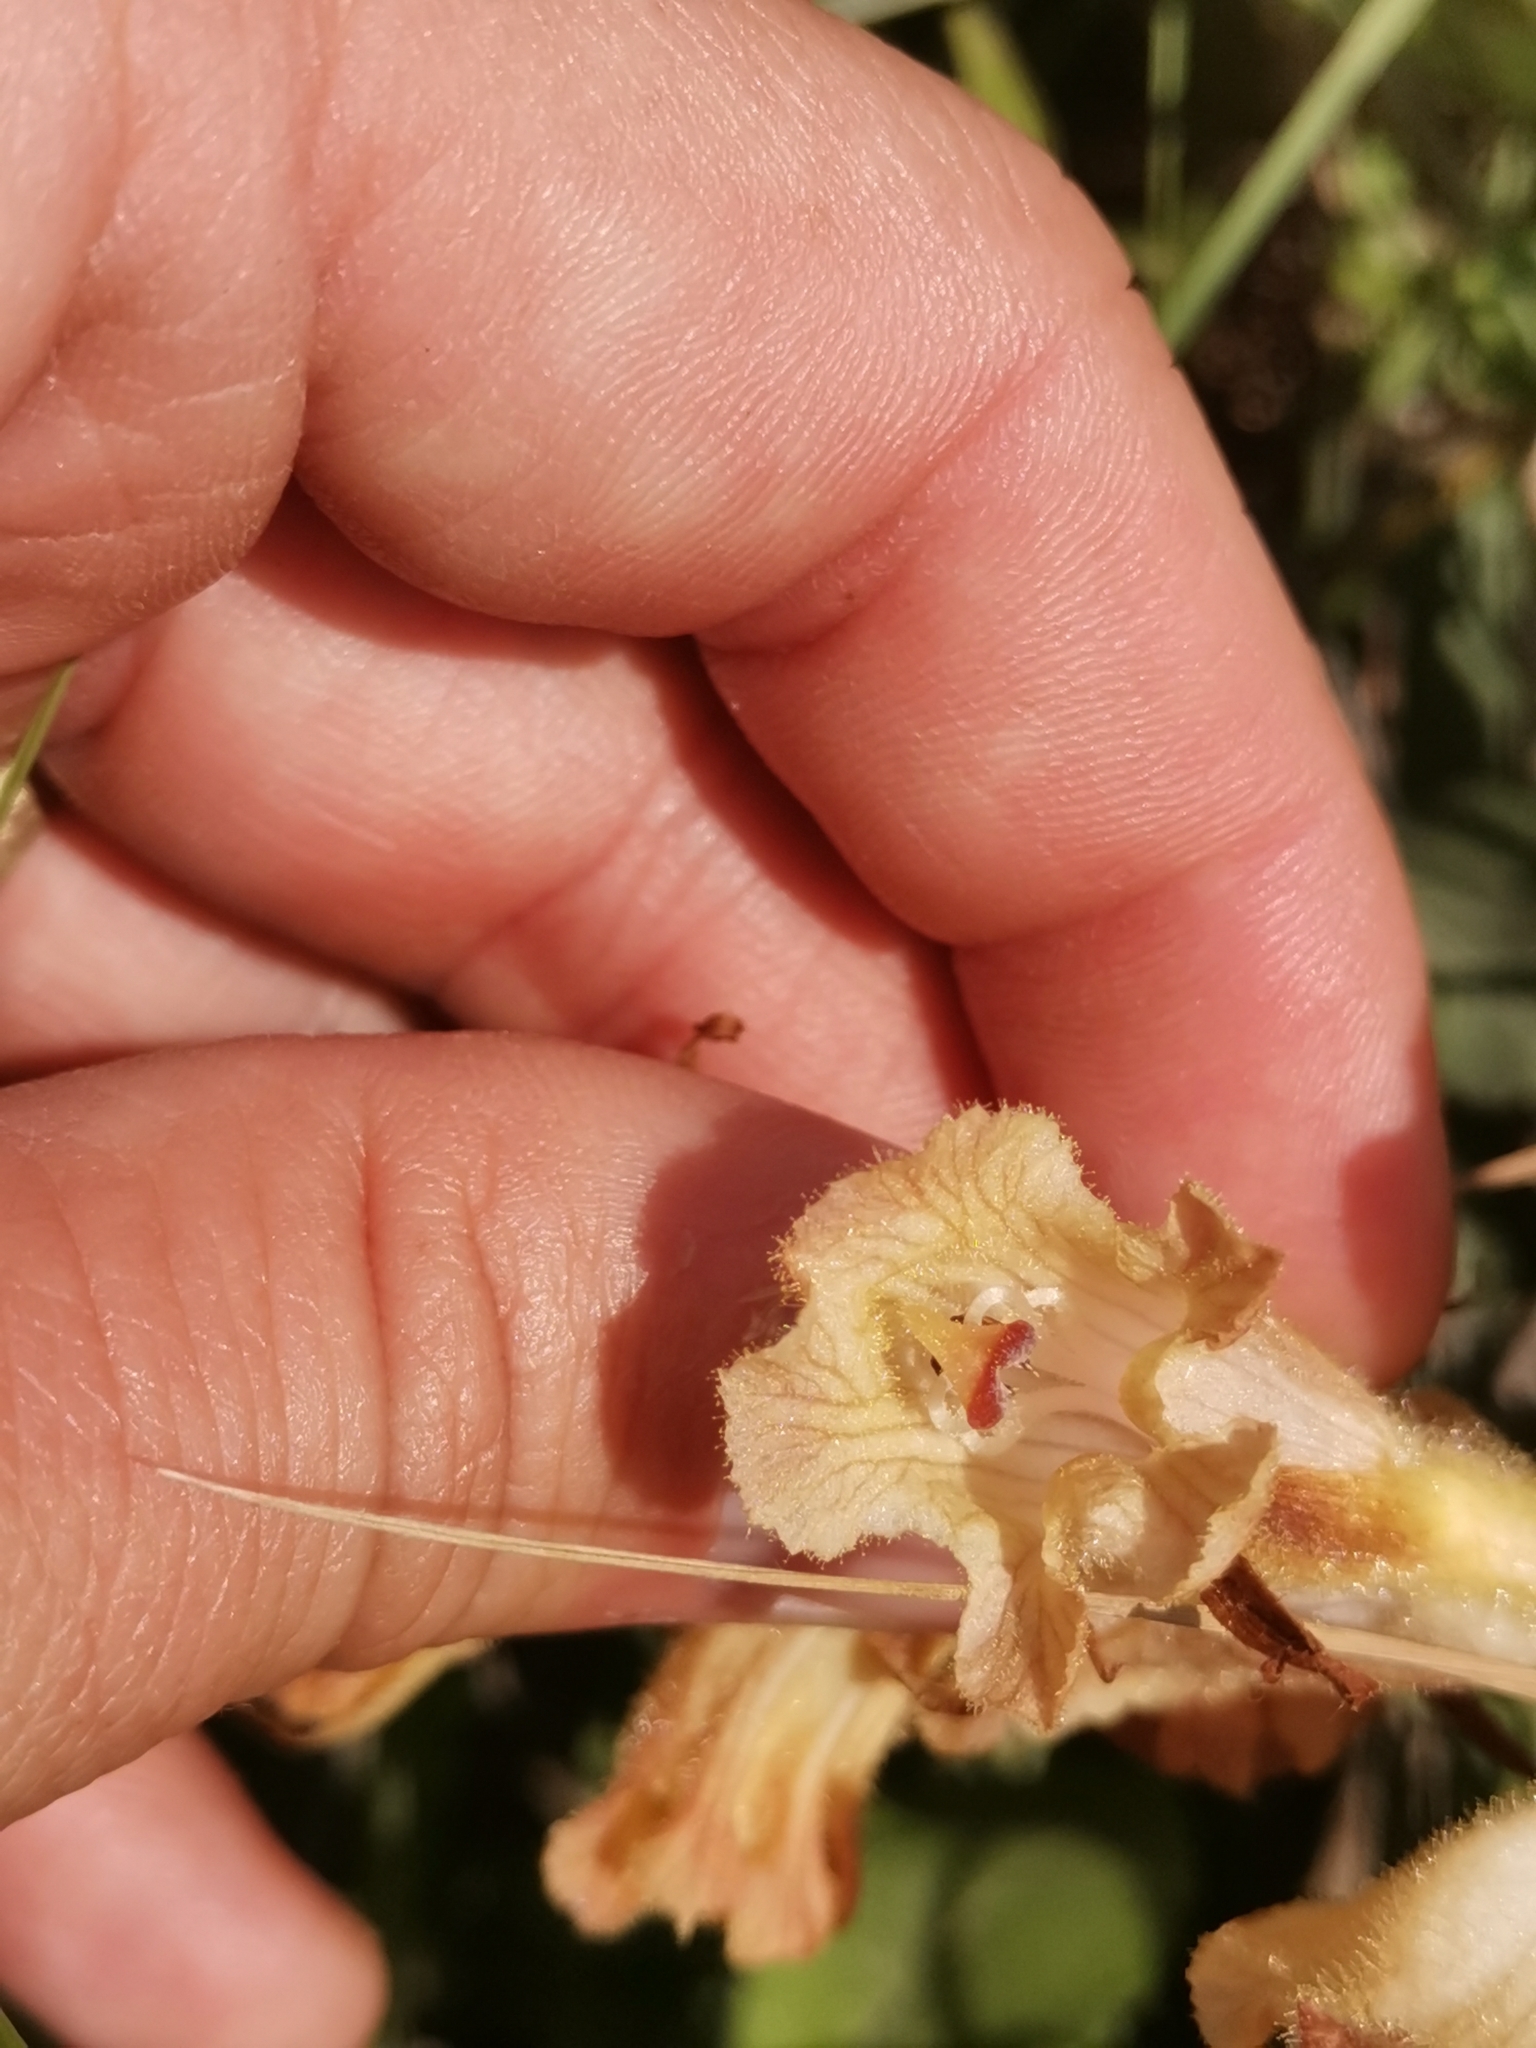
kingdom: Plantae
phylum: Tracheophyta
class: Magnoliopsida
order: Lamiales
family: Orobanchaceae
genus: Orobanche
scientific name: Orobanche caryophyllacea
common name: Bedstraw broomrape
